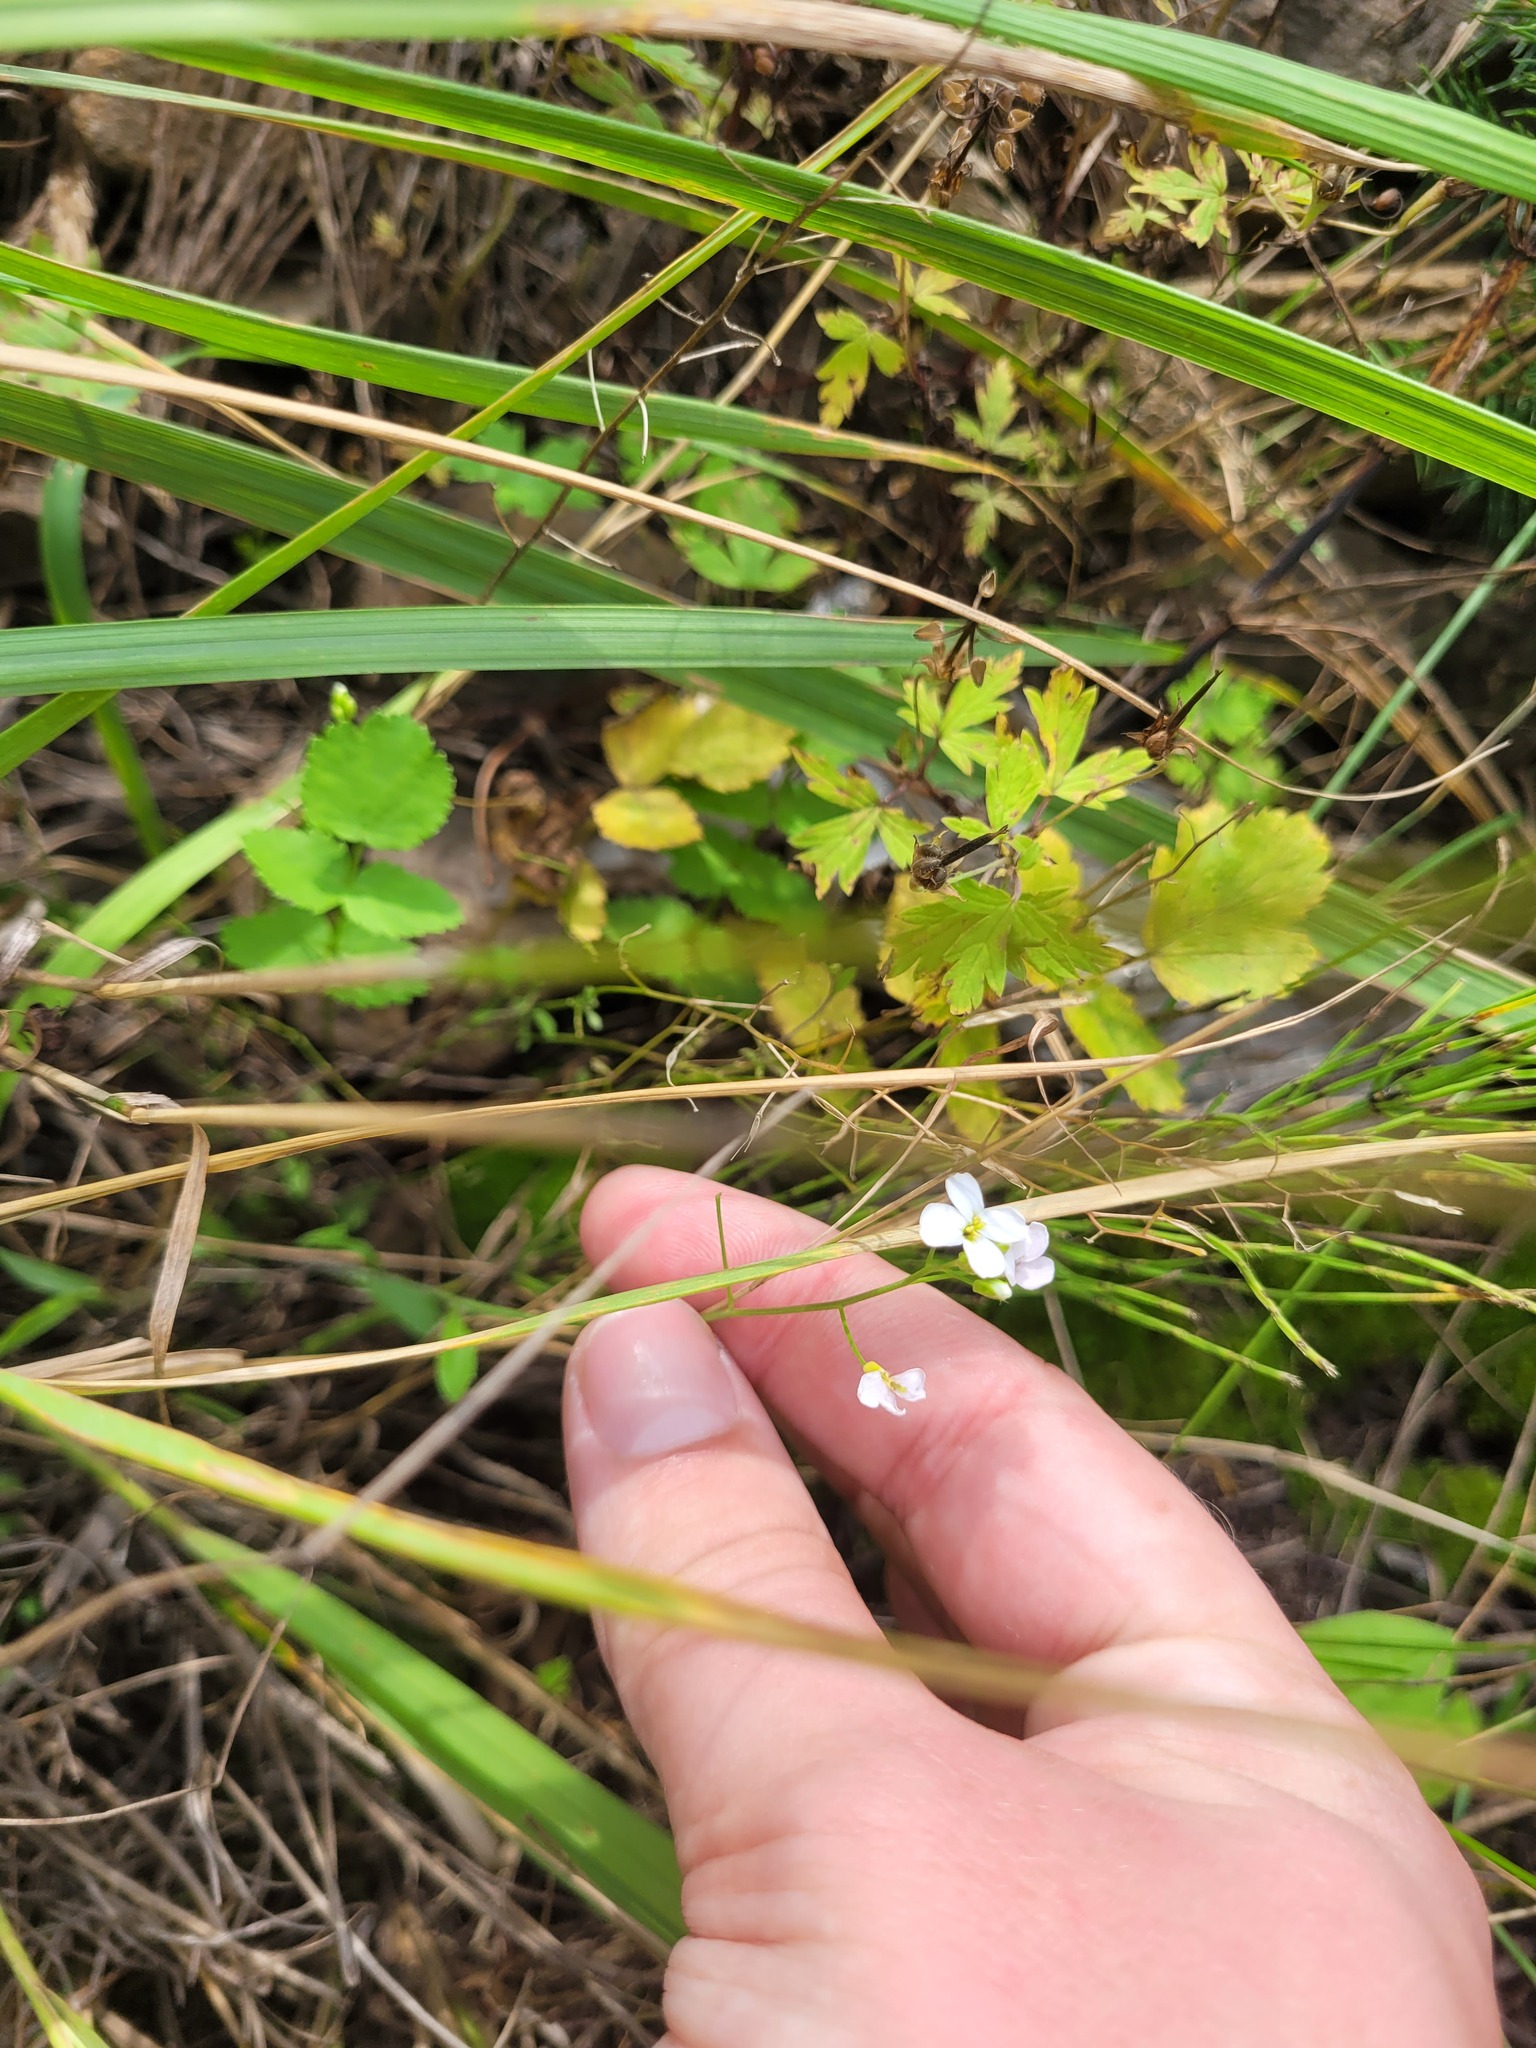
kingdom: Plantae
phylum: Tracheophyta
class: Magnoliopsida
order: Brassicales
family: Brassicaceae
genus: Arabidopsis
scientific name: Arabidopsis arenosa
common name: Sand rock-cress
